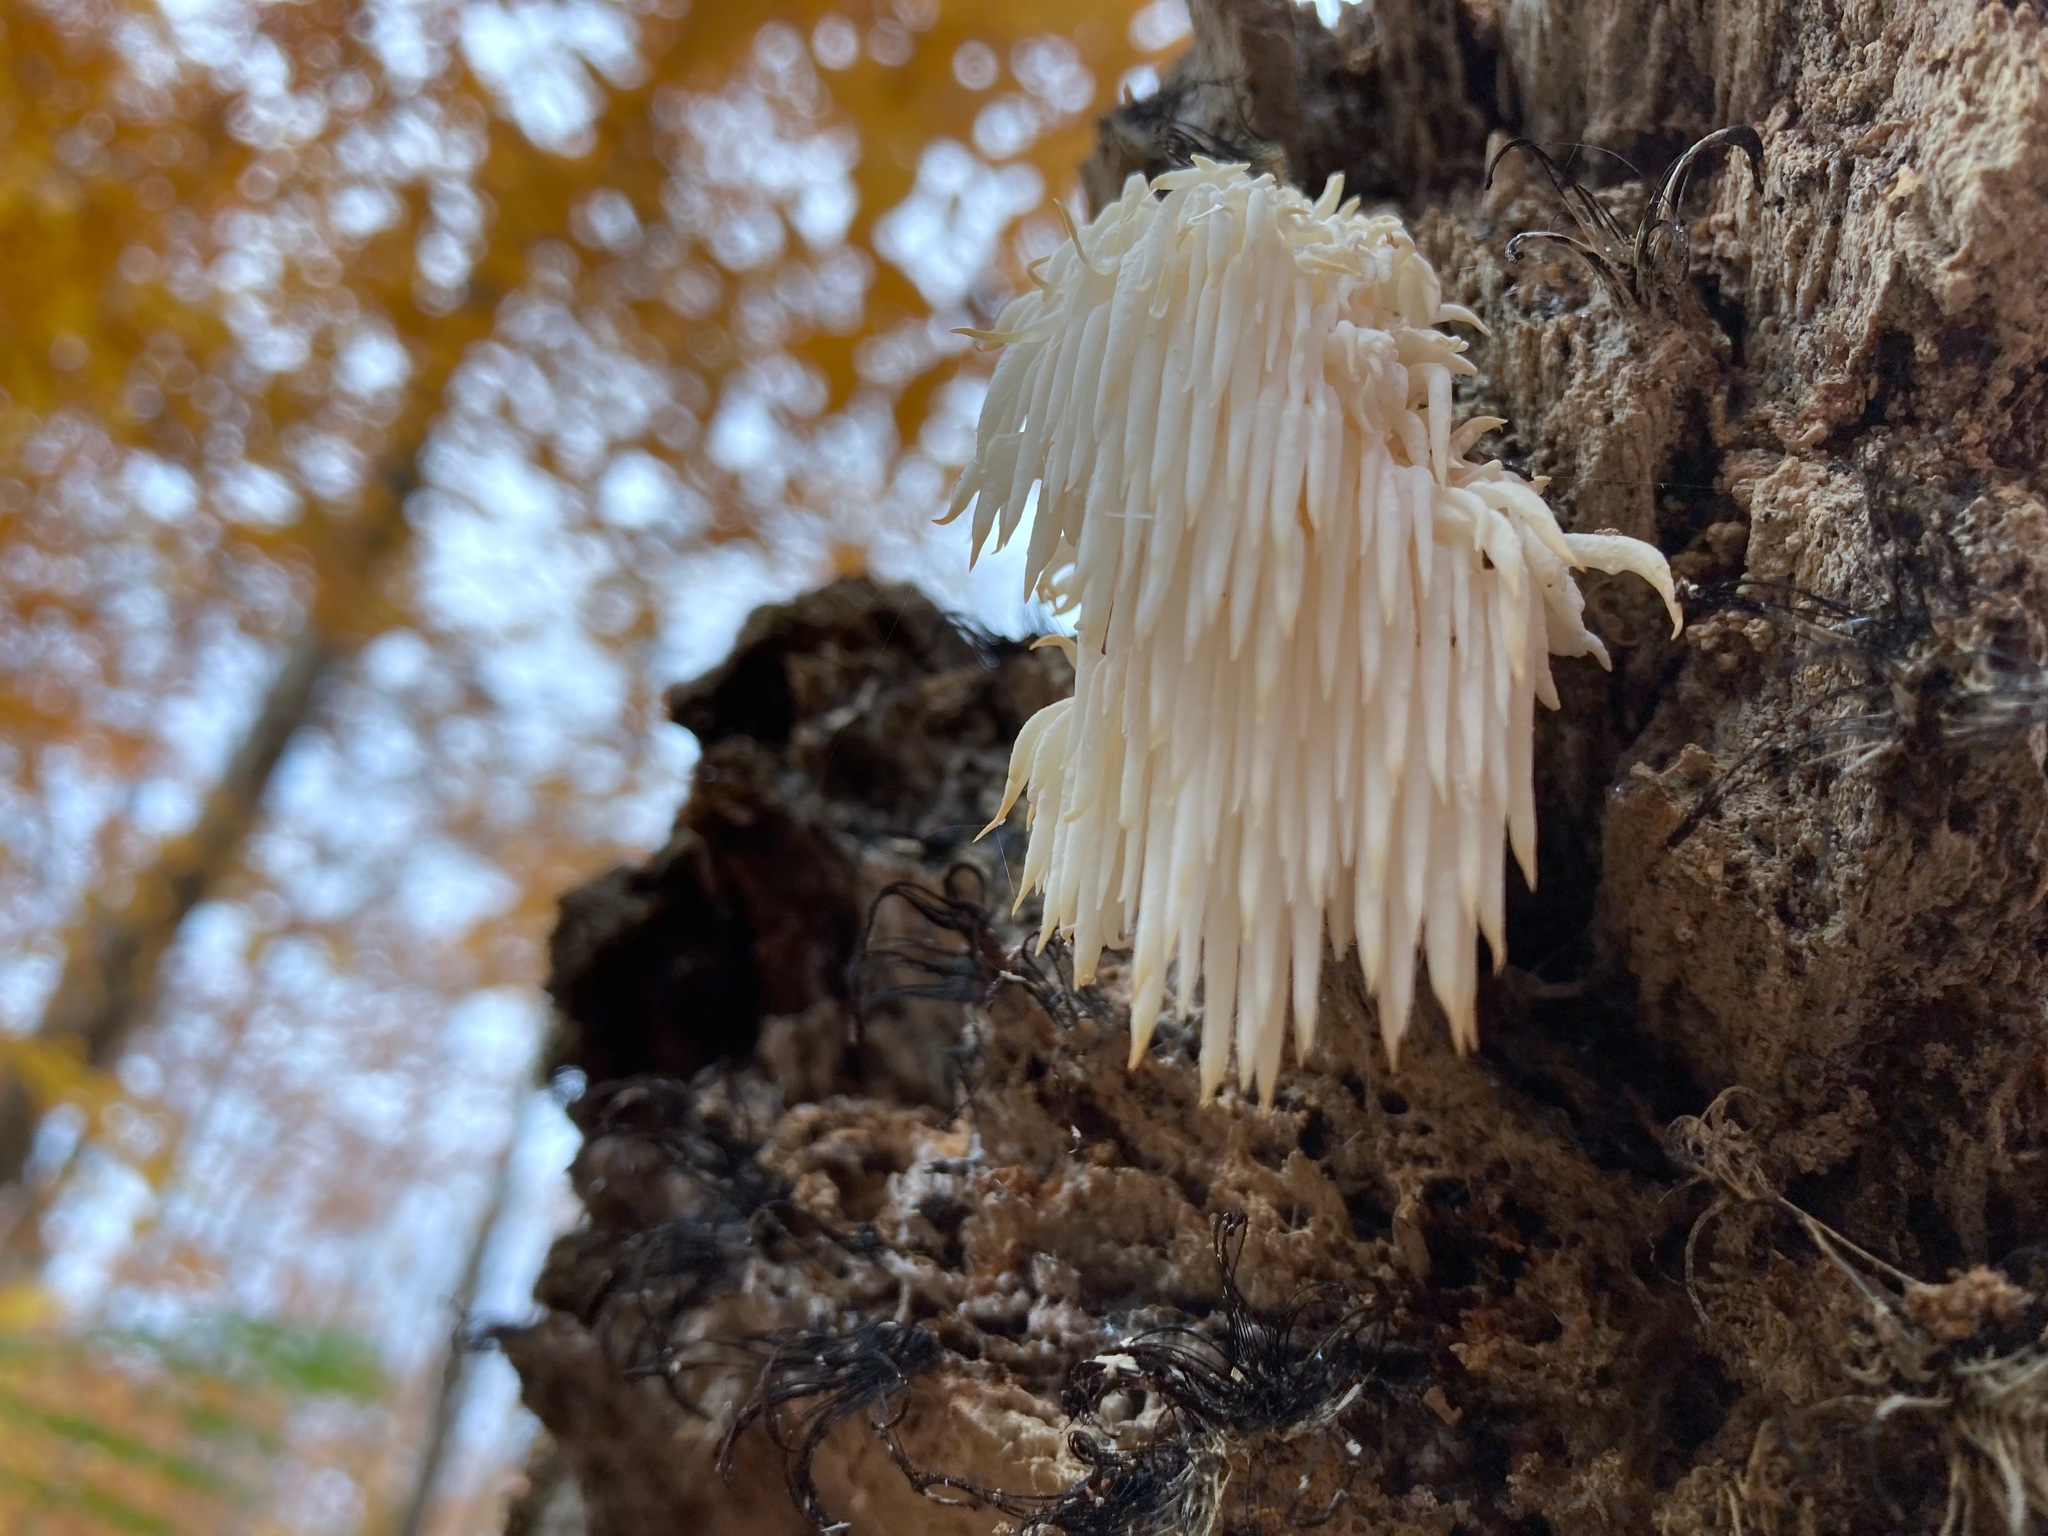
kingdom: Fungi
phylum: Basidiomycota
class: Agaricomycetes
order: Russulales
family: Hericiaceae
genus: Hericium
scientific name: Hericium americanum
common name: Bear's head tooth
